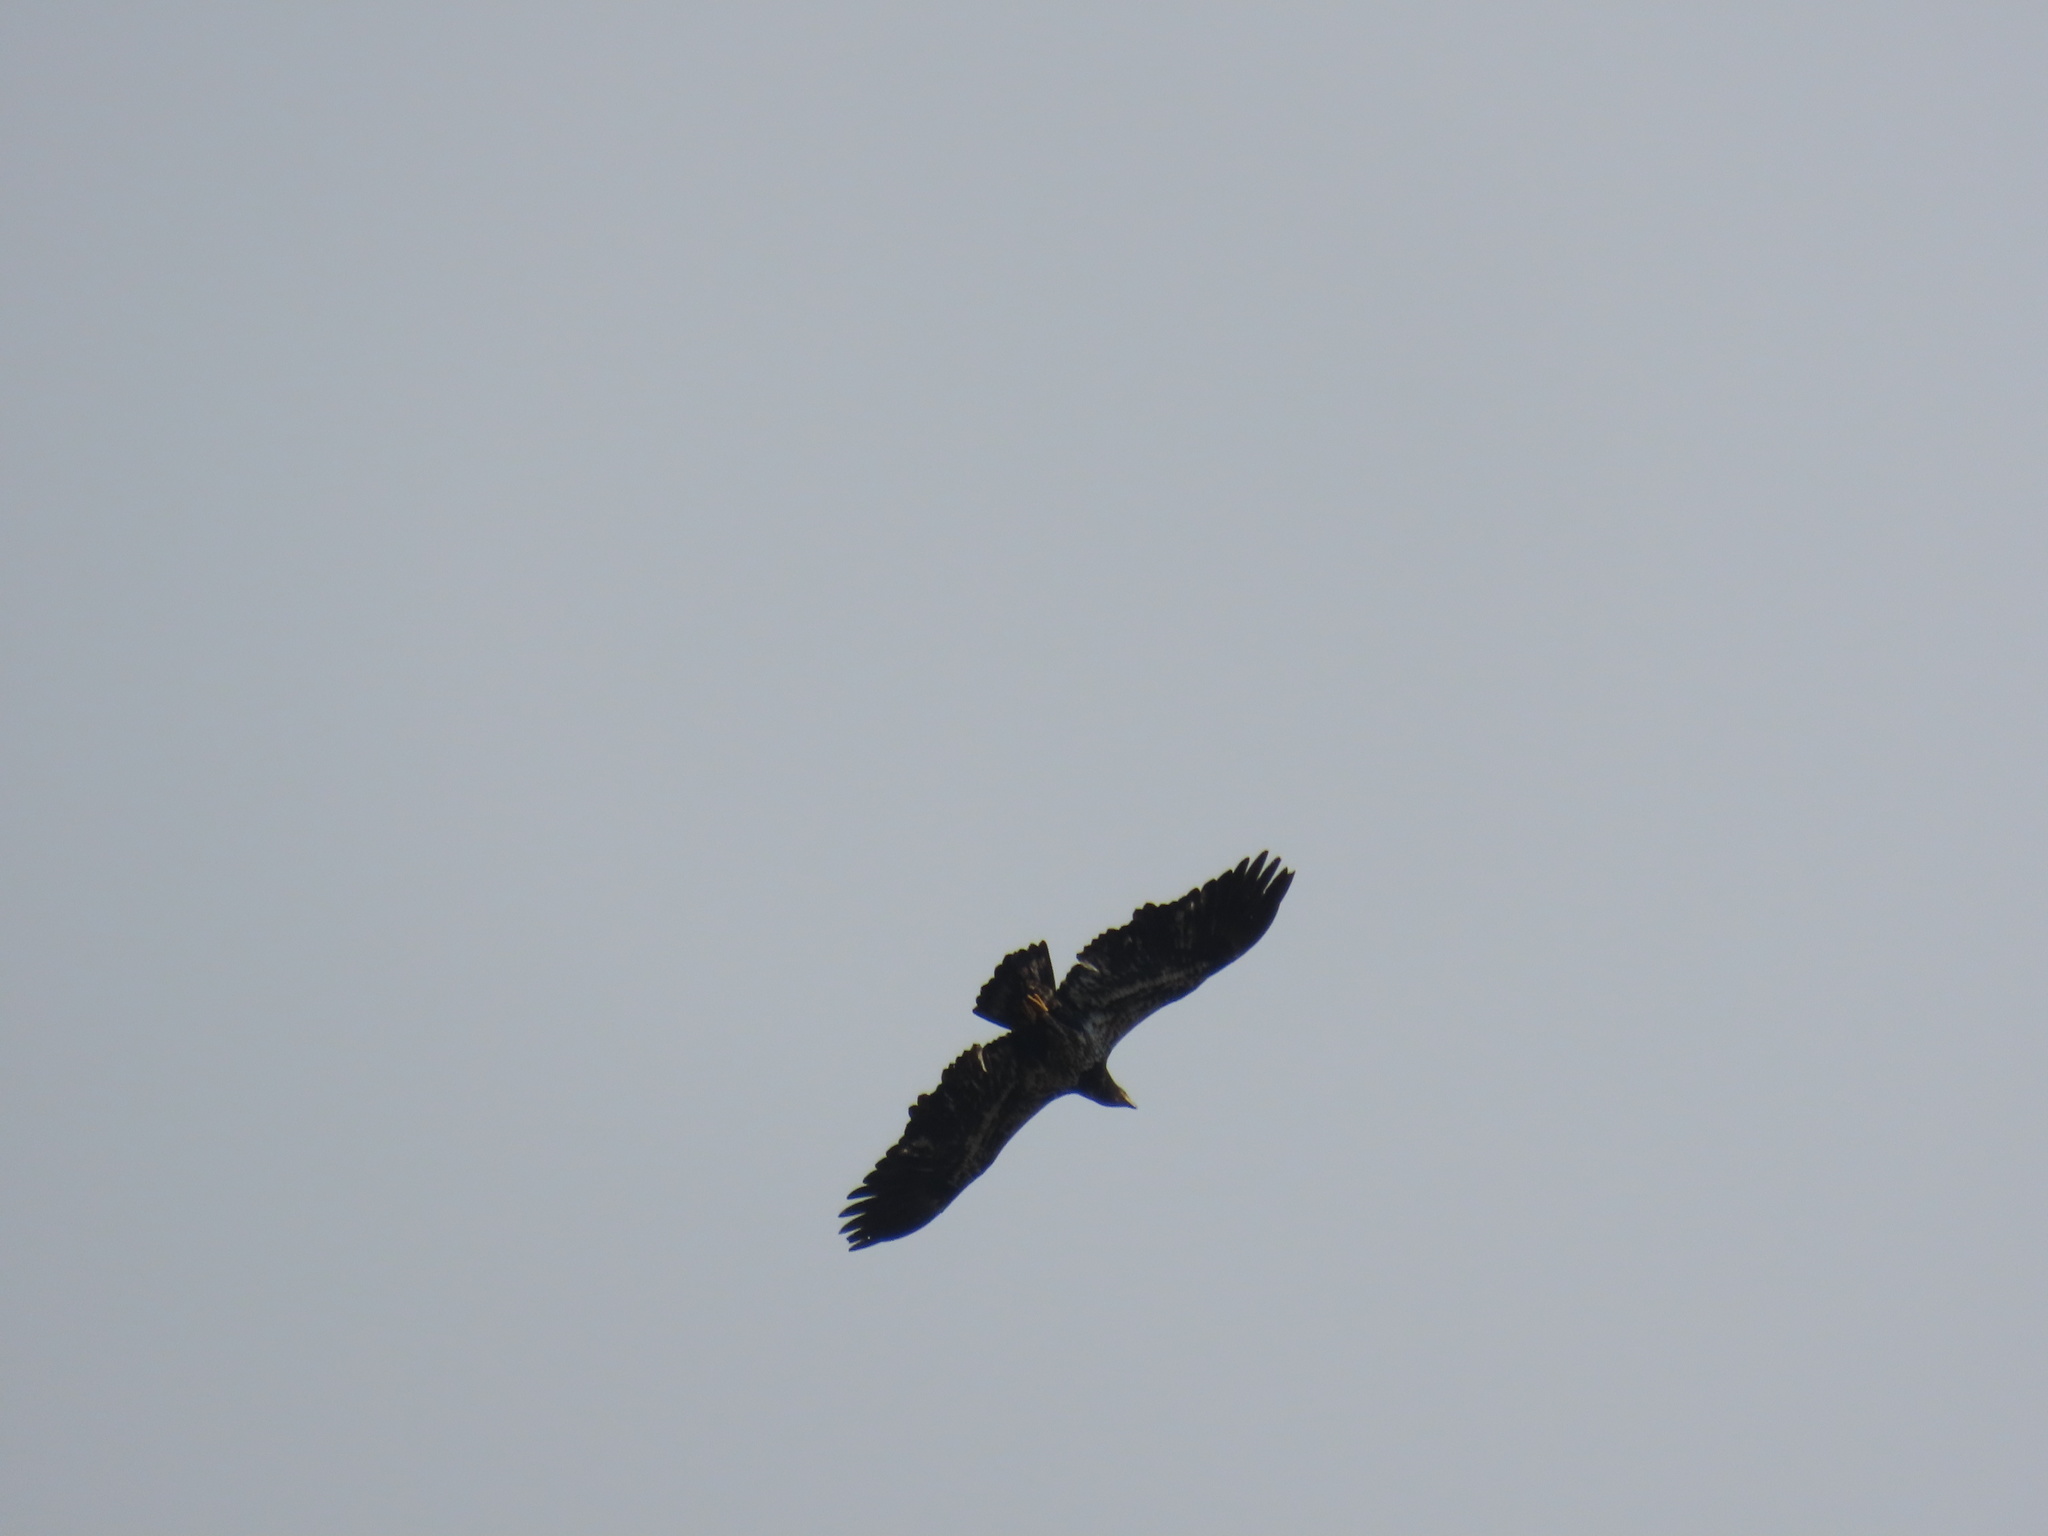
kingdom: Animalia
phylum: Chordata
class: Aves
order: Accipitriformes
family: Accipitridae
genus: Haliaeetus
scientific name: Haliaeetus leucocephalus
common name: Bald eagle
